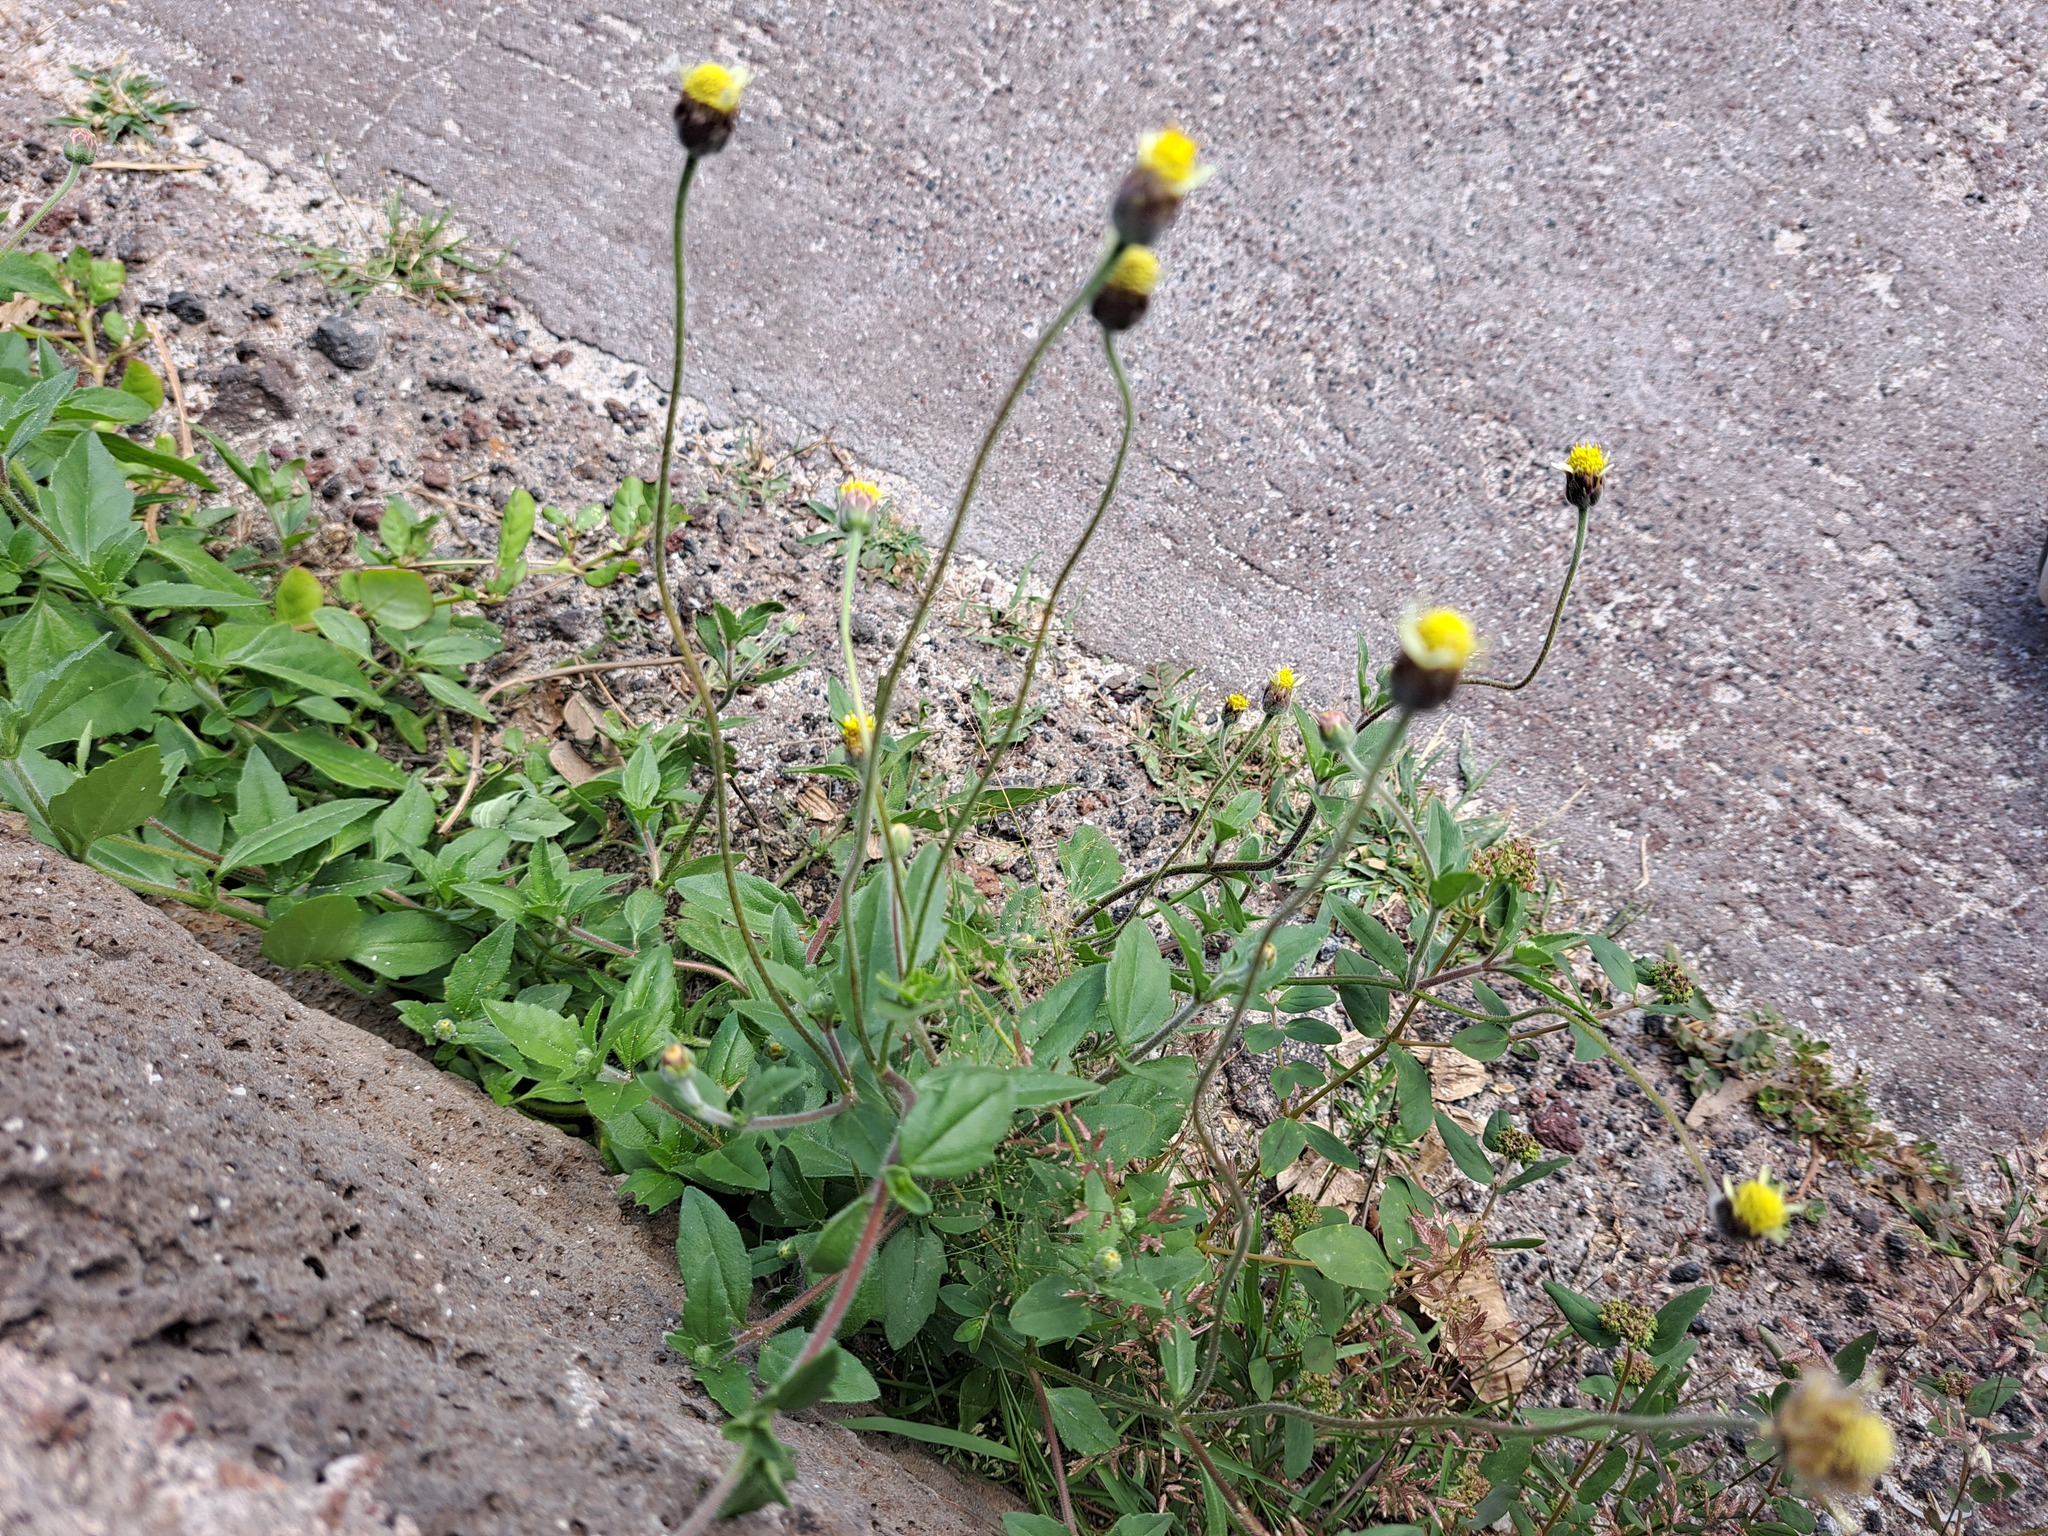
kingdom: Plantae
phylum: Tracheophyta
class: Magnoliopsida
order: Asterales
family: Asteraceae
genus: Tridax
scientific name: Tridax procumbens
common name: Coatbuttons
